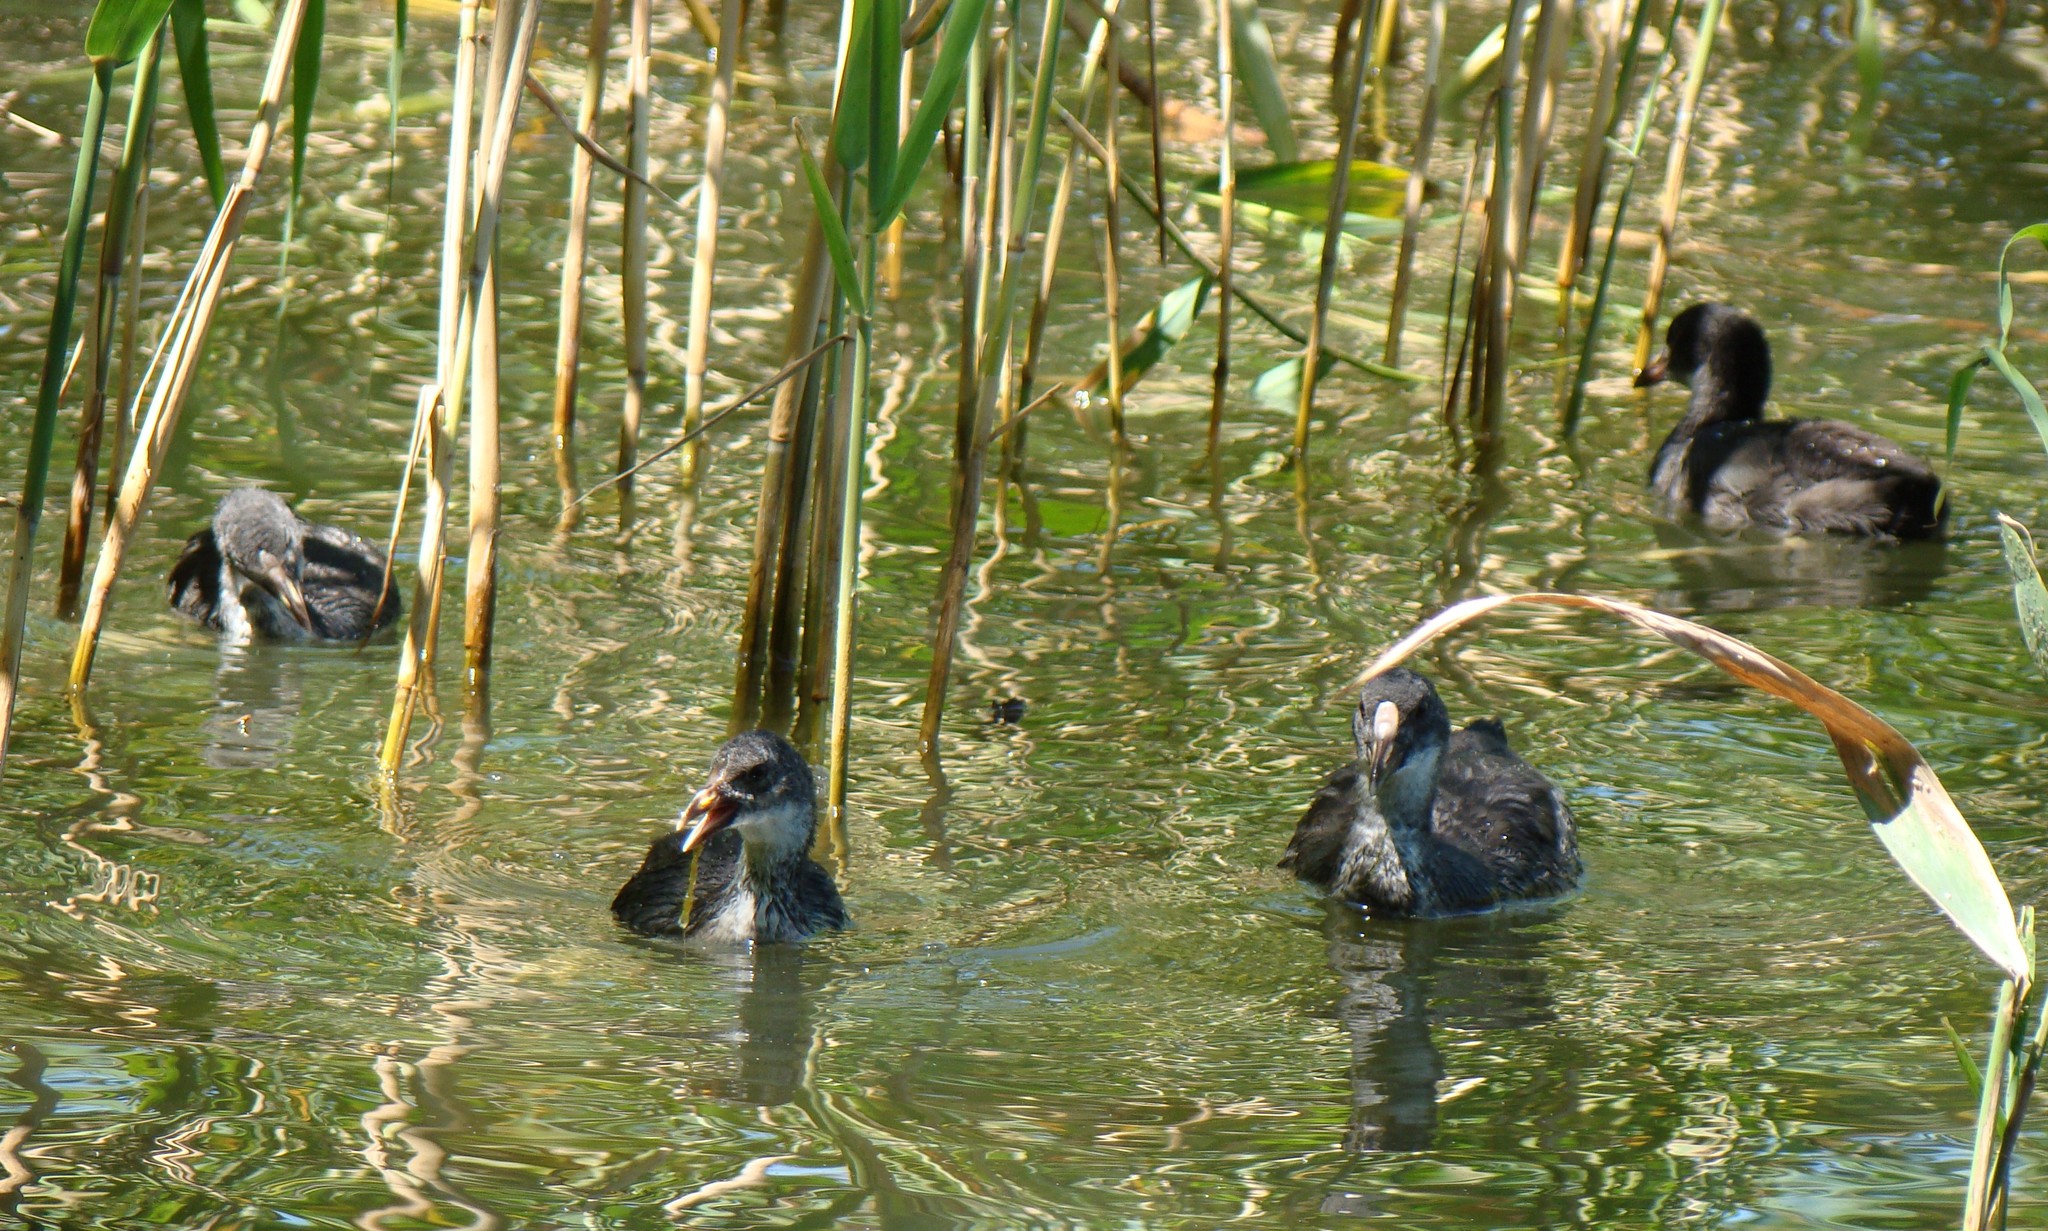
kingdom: Animalia
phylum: Chordata
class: Aves
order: Gruiformes
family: Rallidae
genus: Fulica
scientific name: Fulica atra
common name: Eurasian coot
